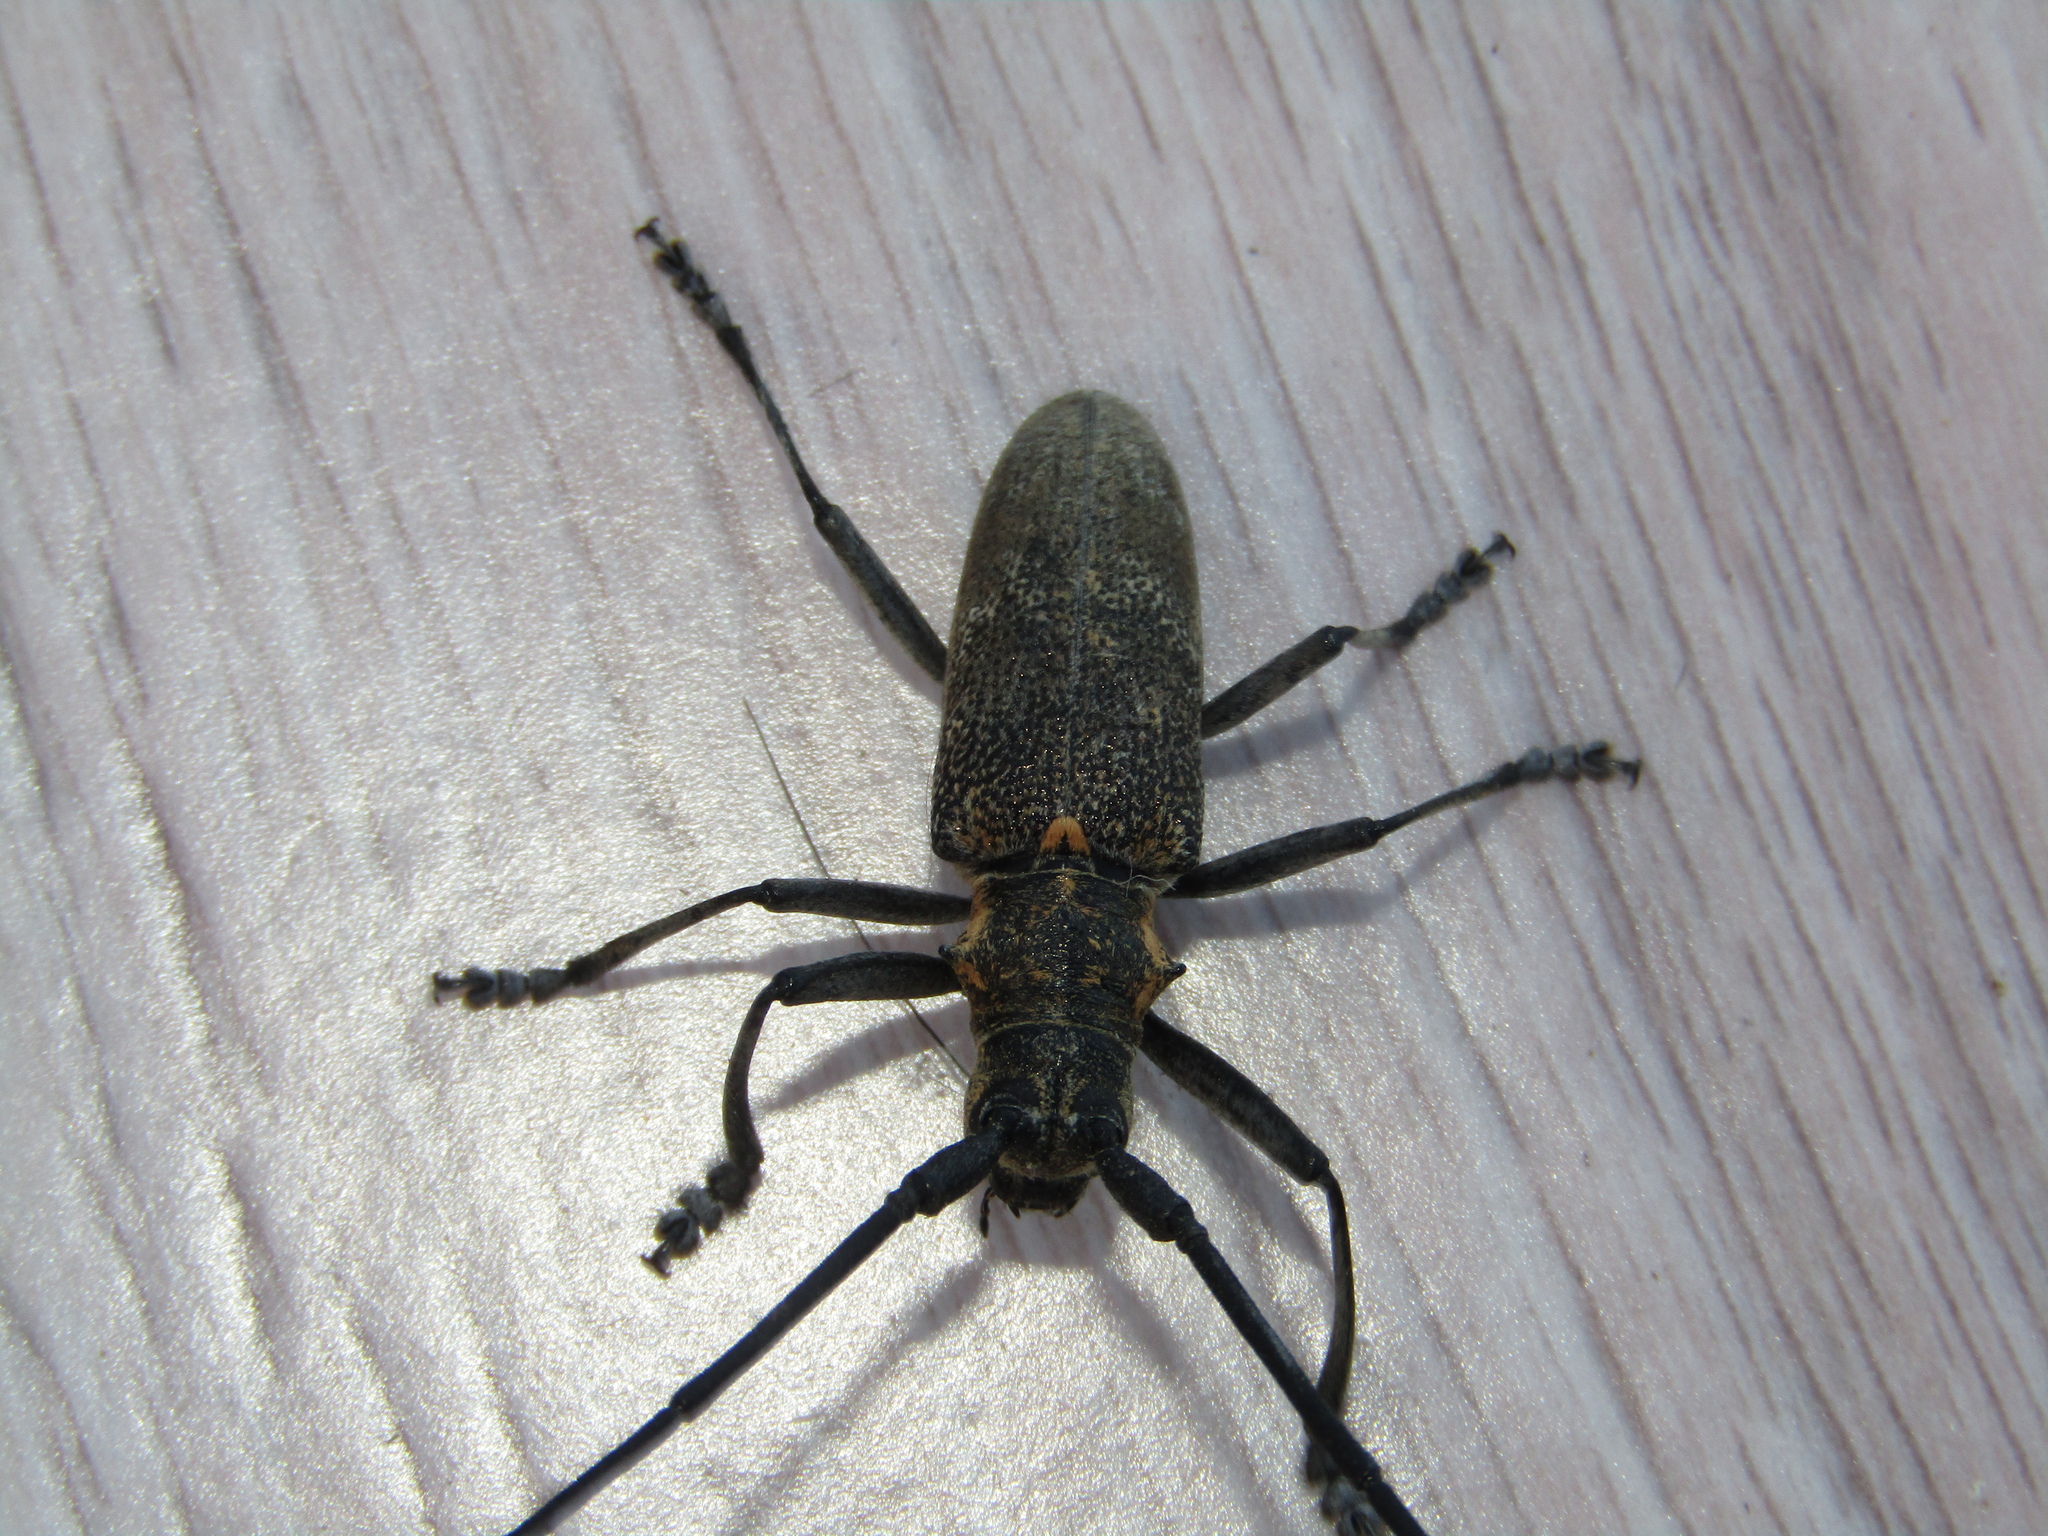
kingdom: Animalia
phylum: Arthropoda
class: Insecta
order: Coleoptera
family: Cerambycidae
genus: Monochamus
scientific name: Monochamus galloprovincialis
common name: Pine sawyer
